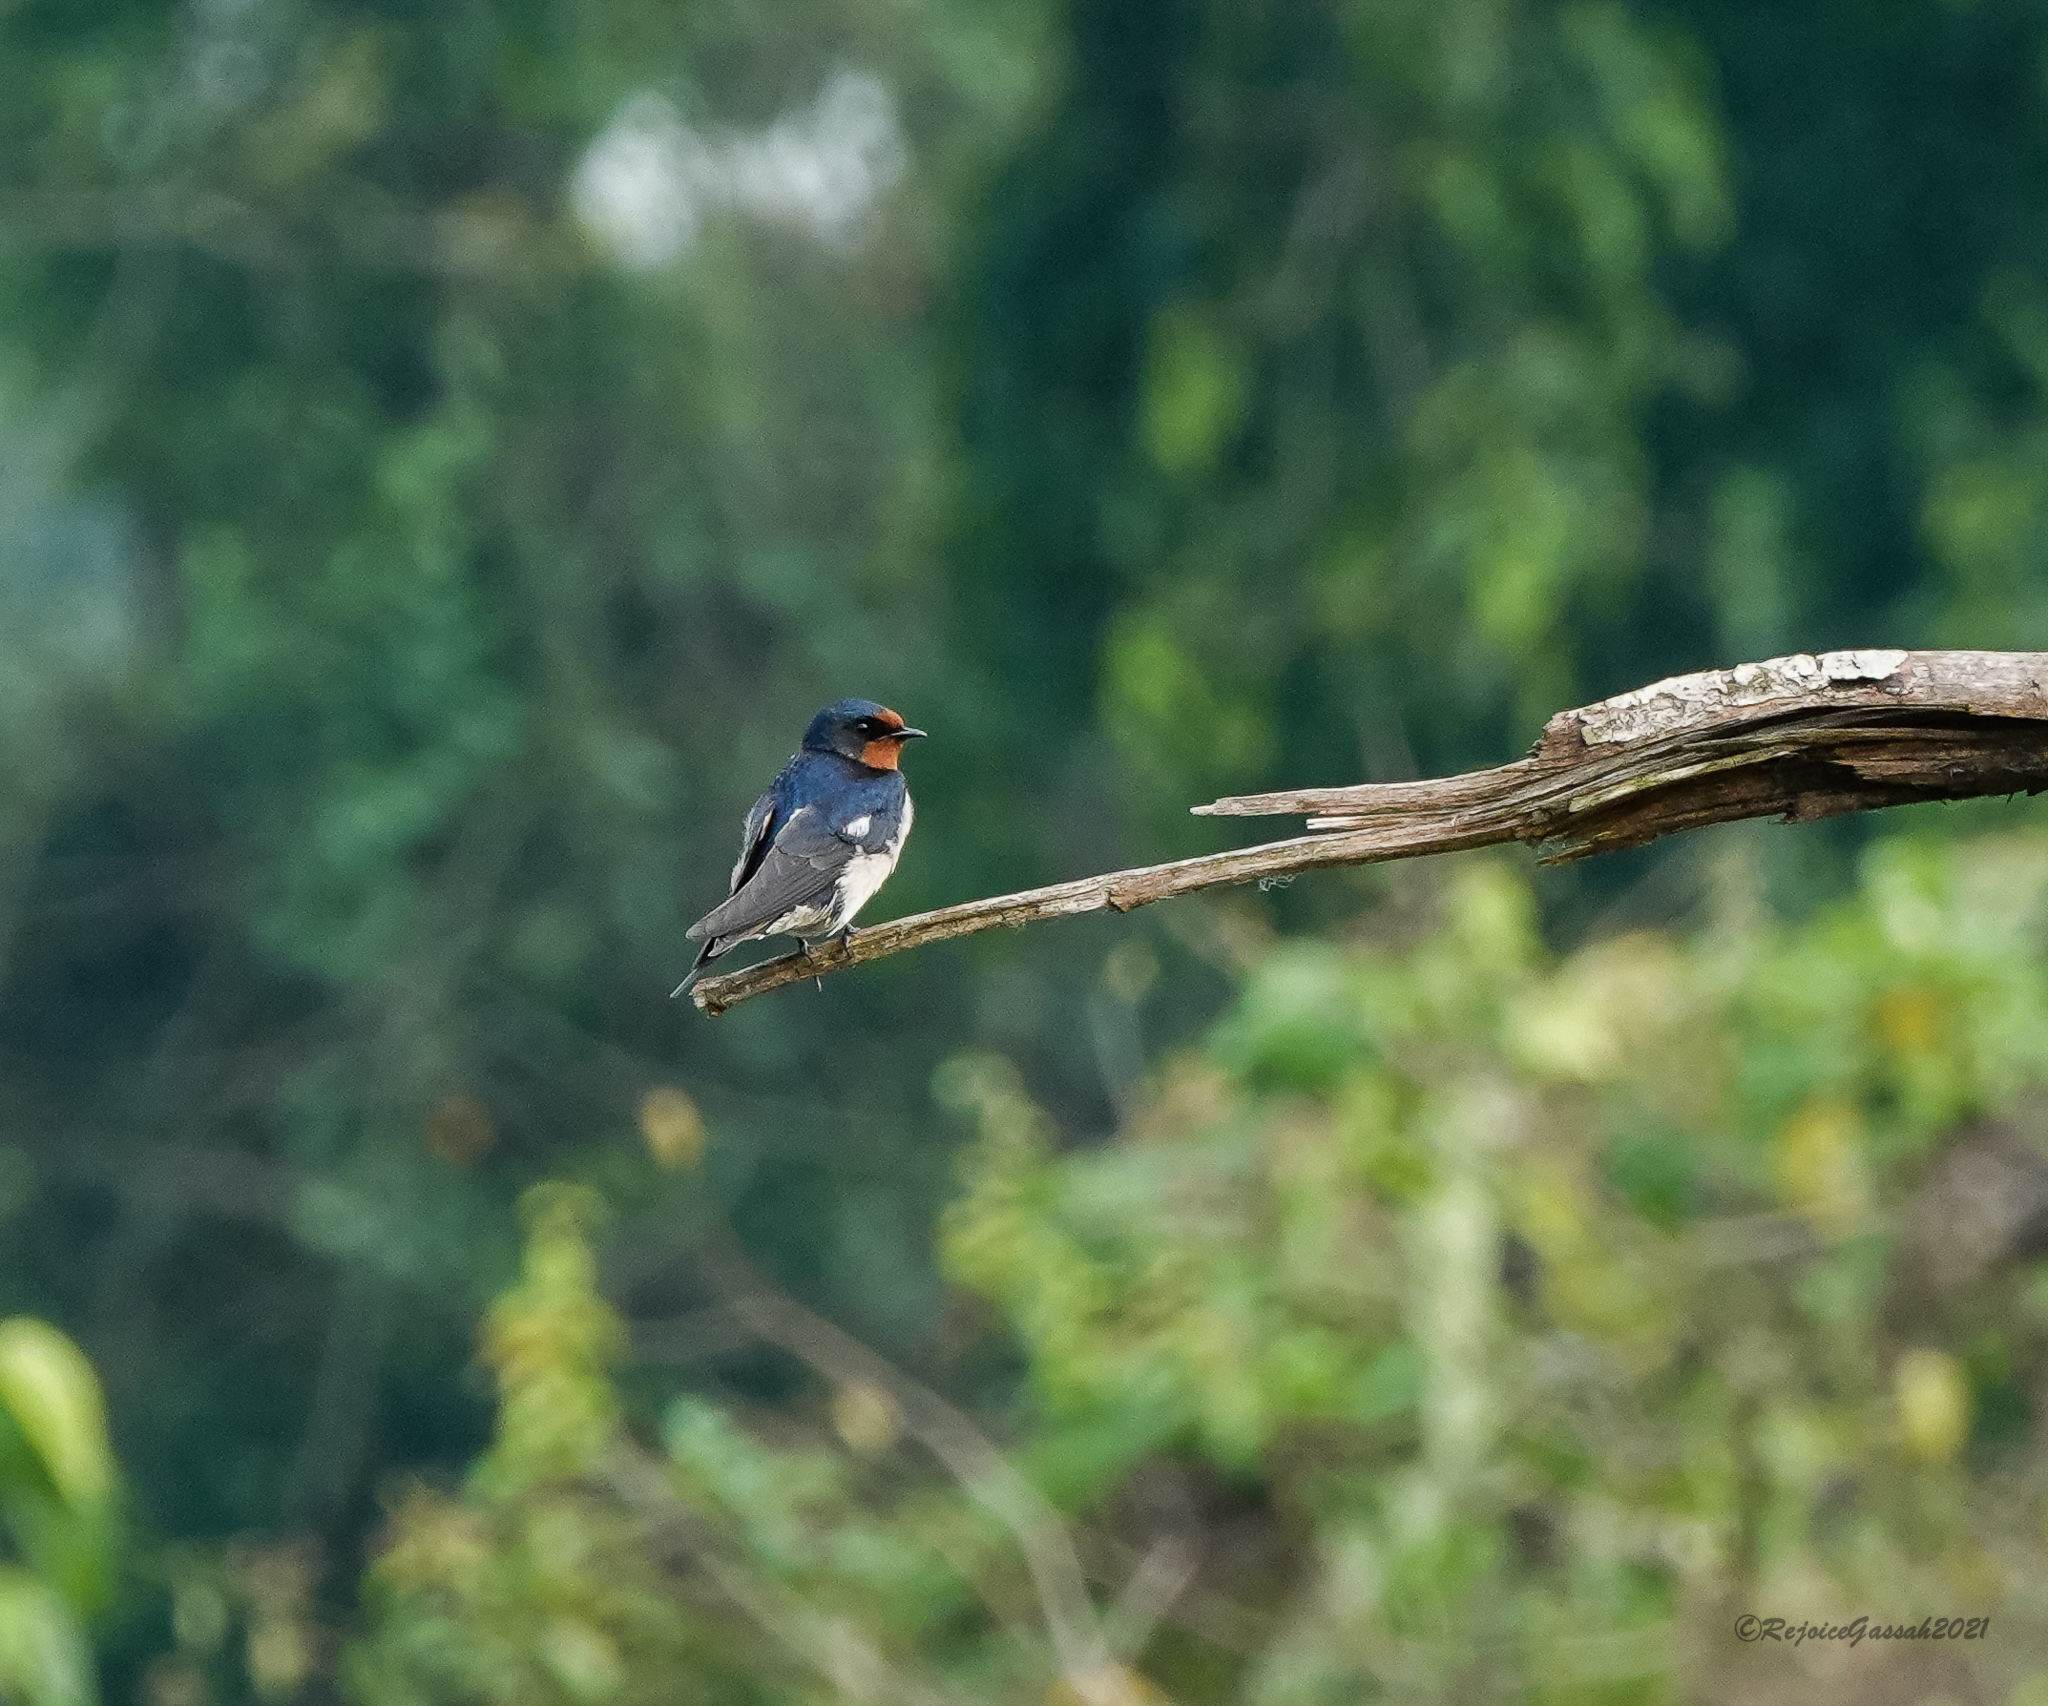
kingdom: Animalia
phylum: Chordata
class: Aves
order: Passeriformes
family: Hirundinidae
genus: Hirundo
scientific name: Hirundo rustica
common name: Barn swallow
